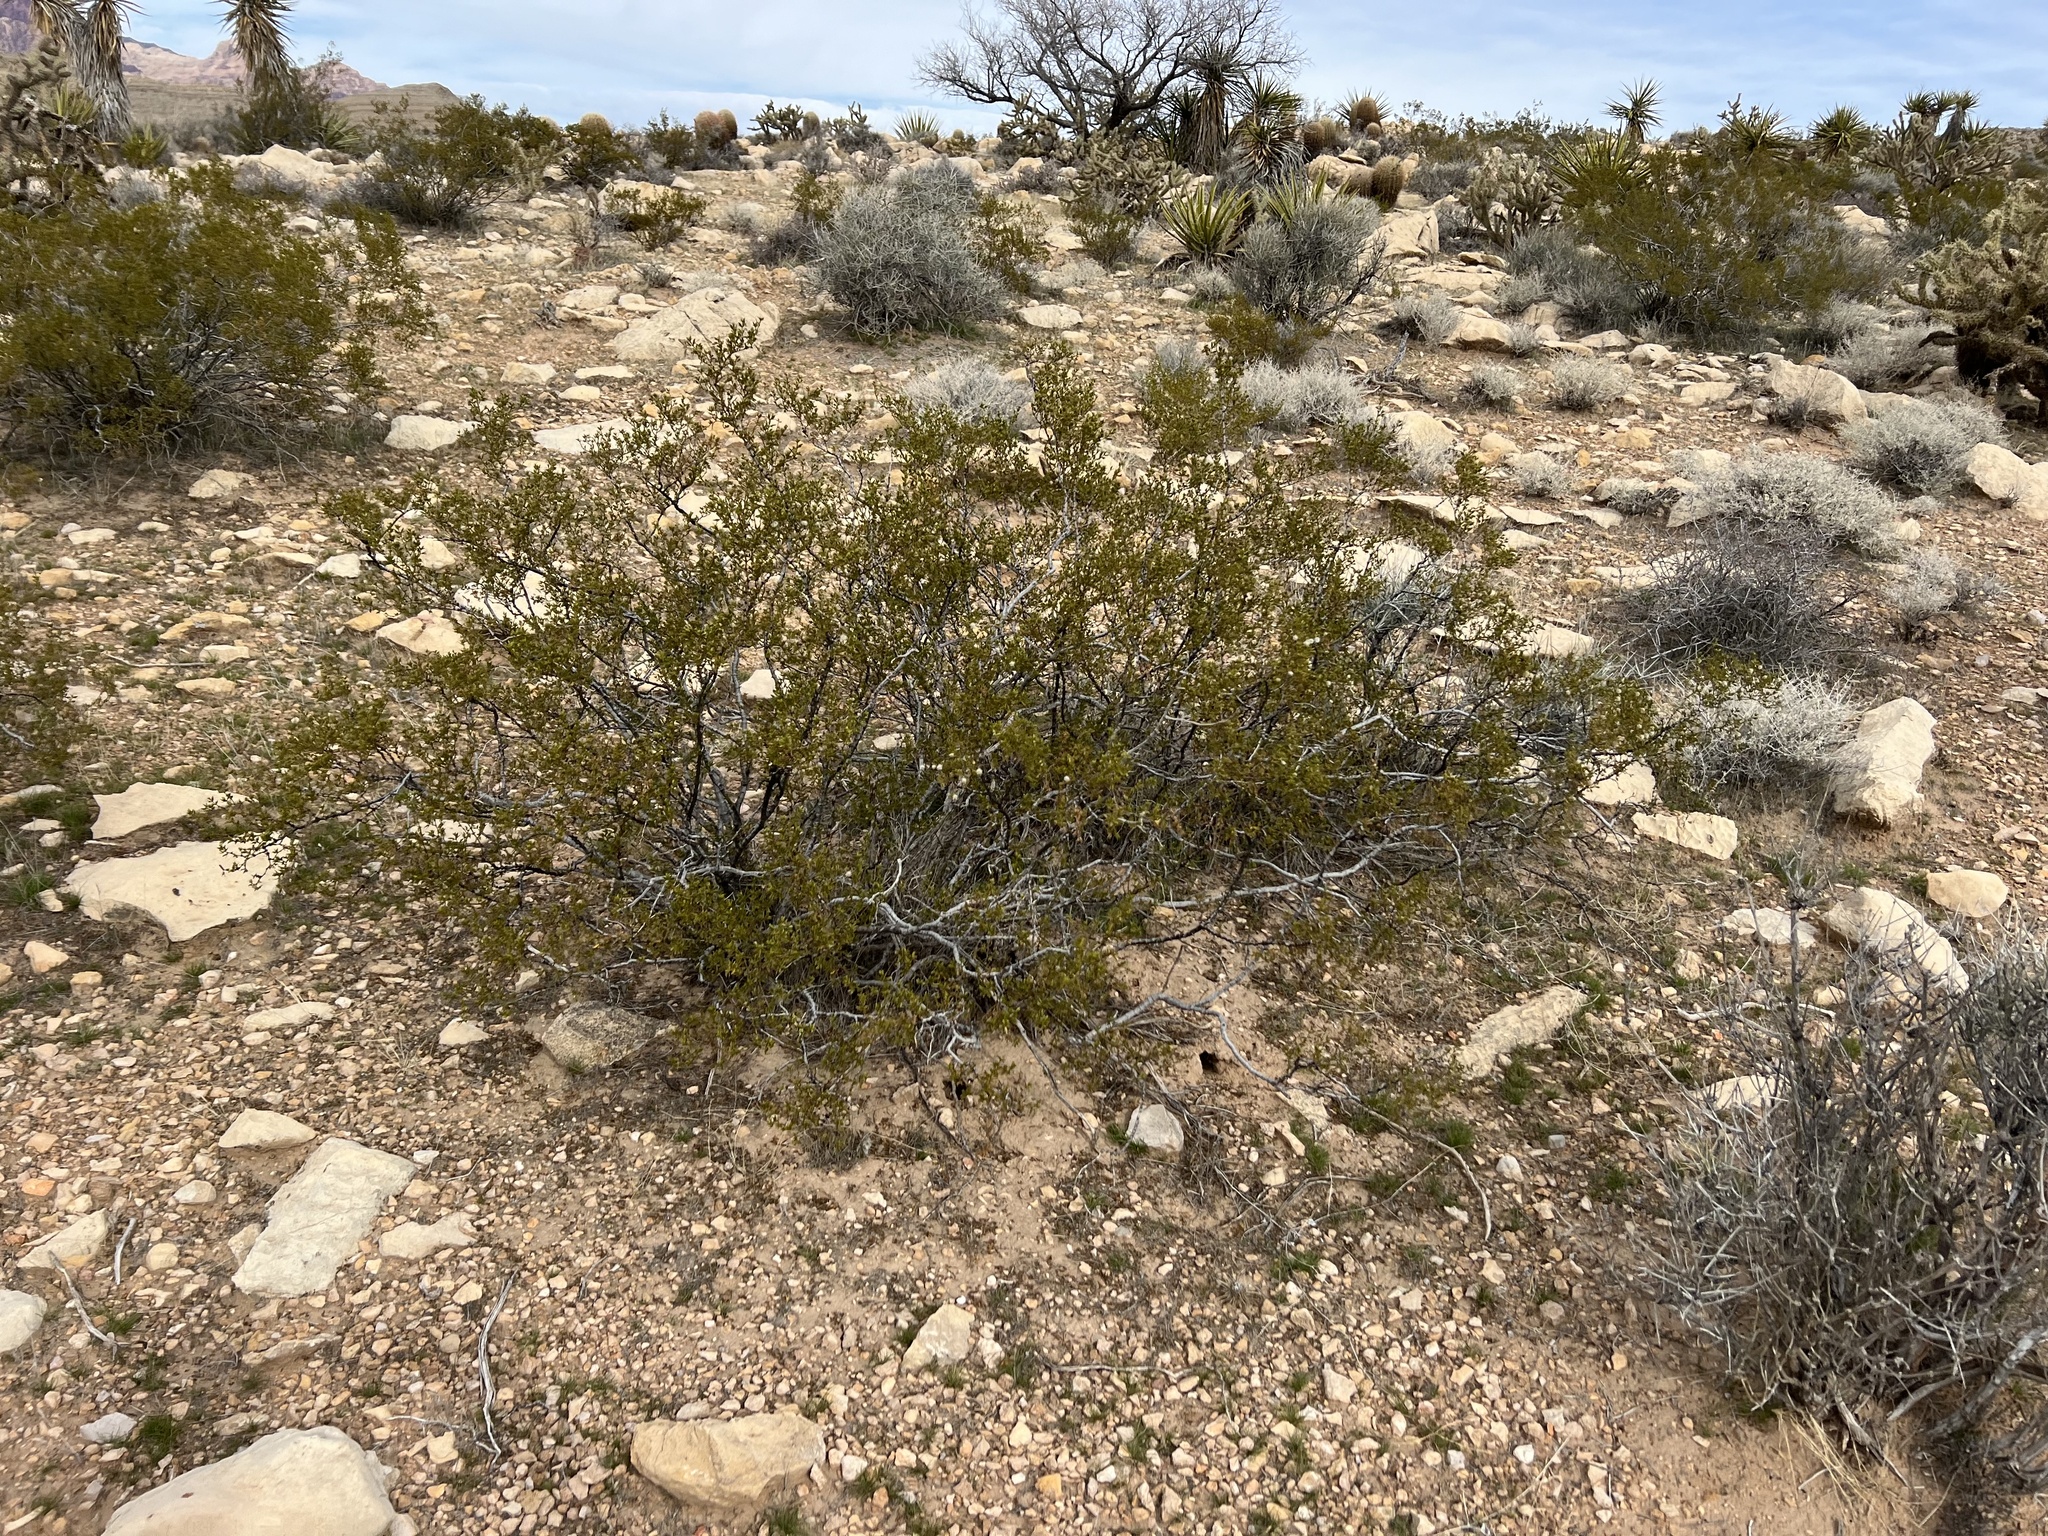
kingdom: Plantae
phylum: Tracheophyta
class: Magnoliopsida
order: Zygophyllales
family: Zygophyllaceae
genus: Larrea
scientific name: Larrea tridentata
